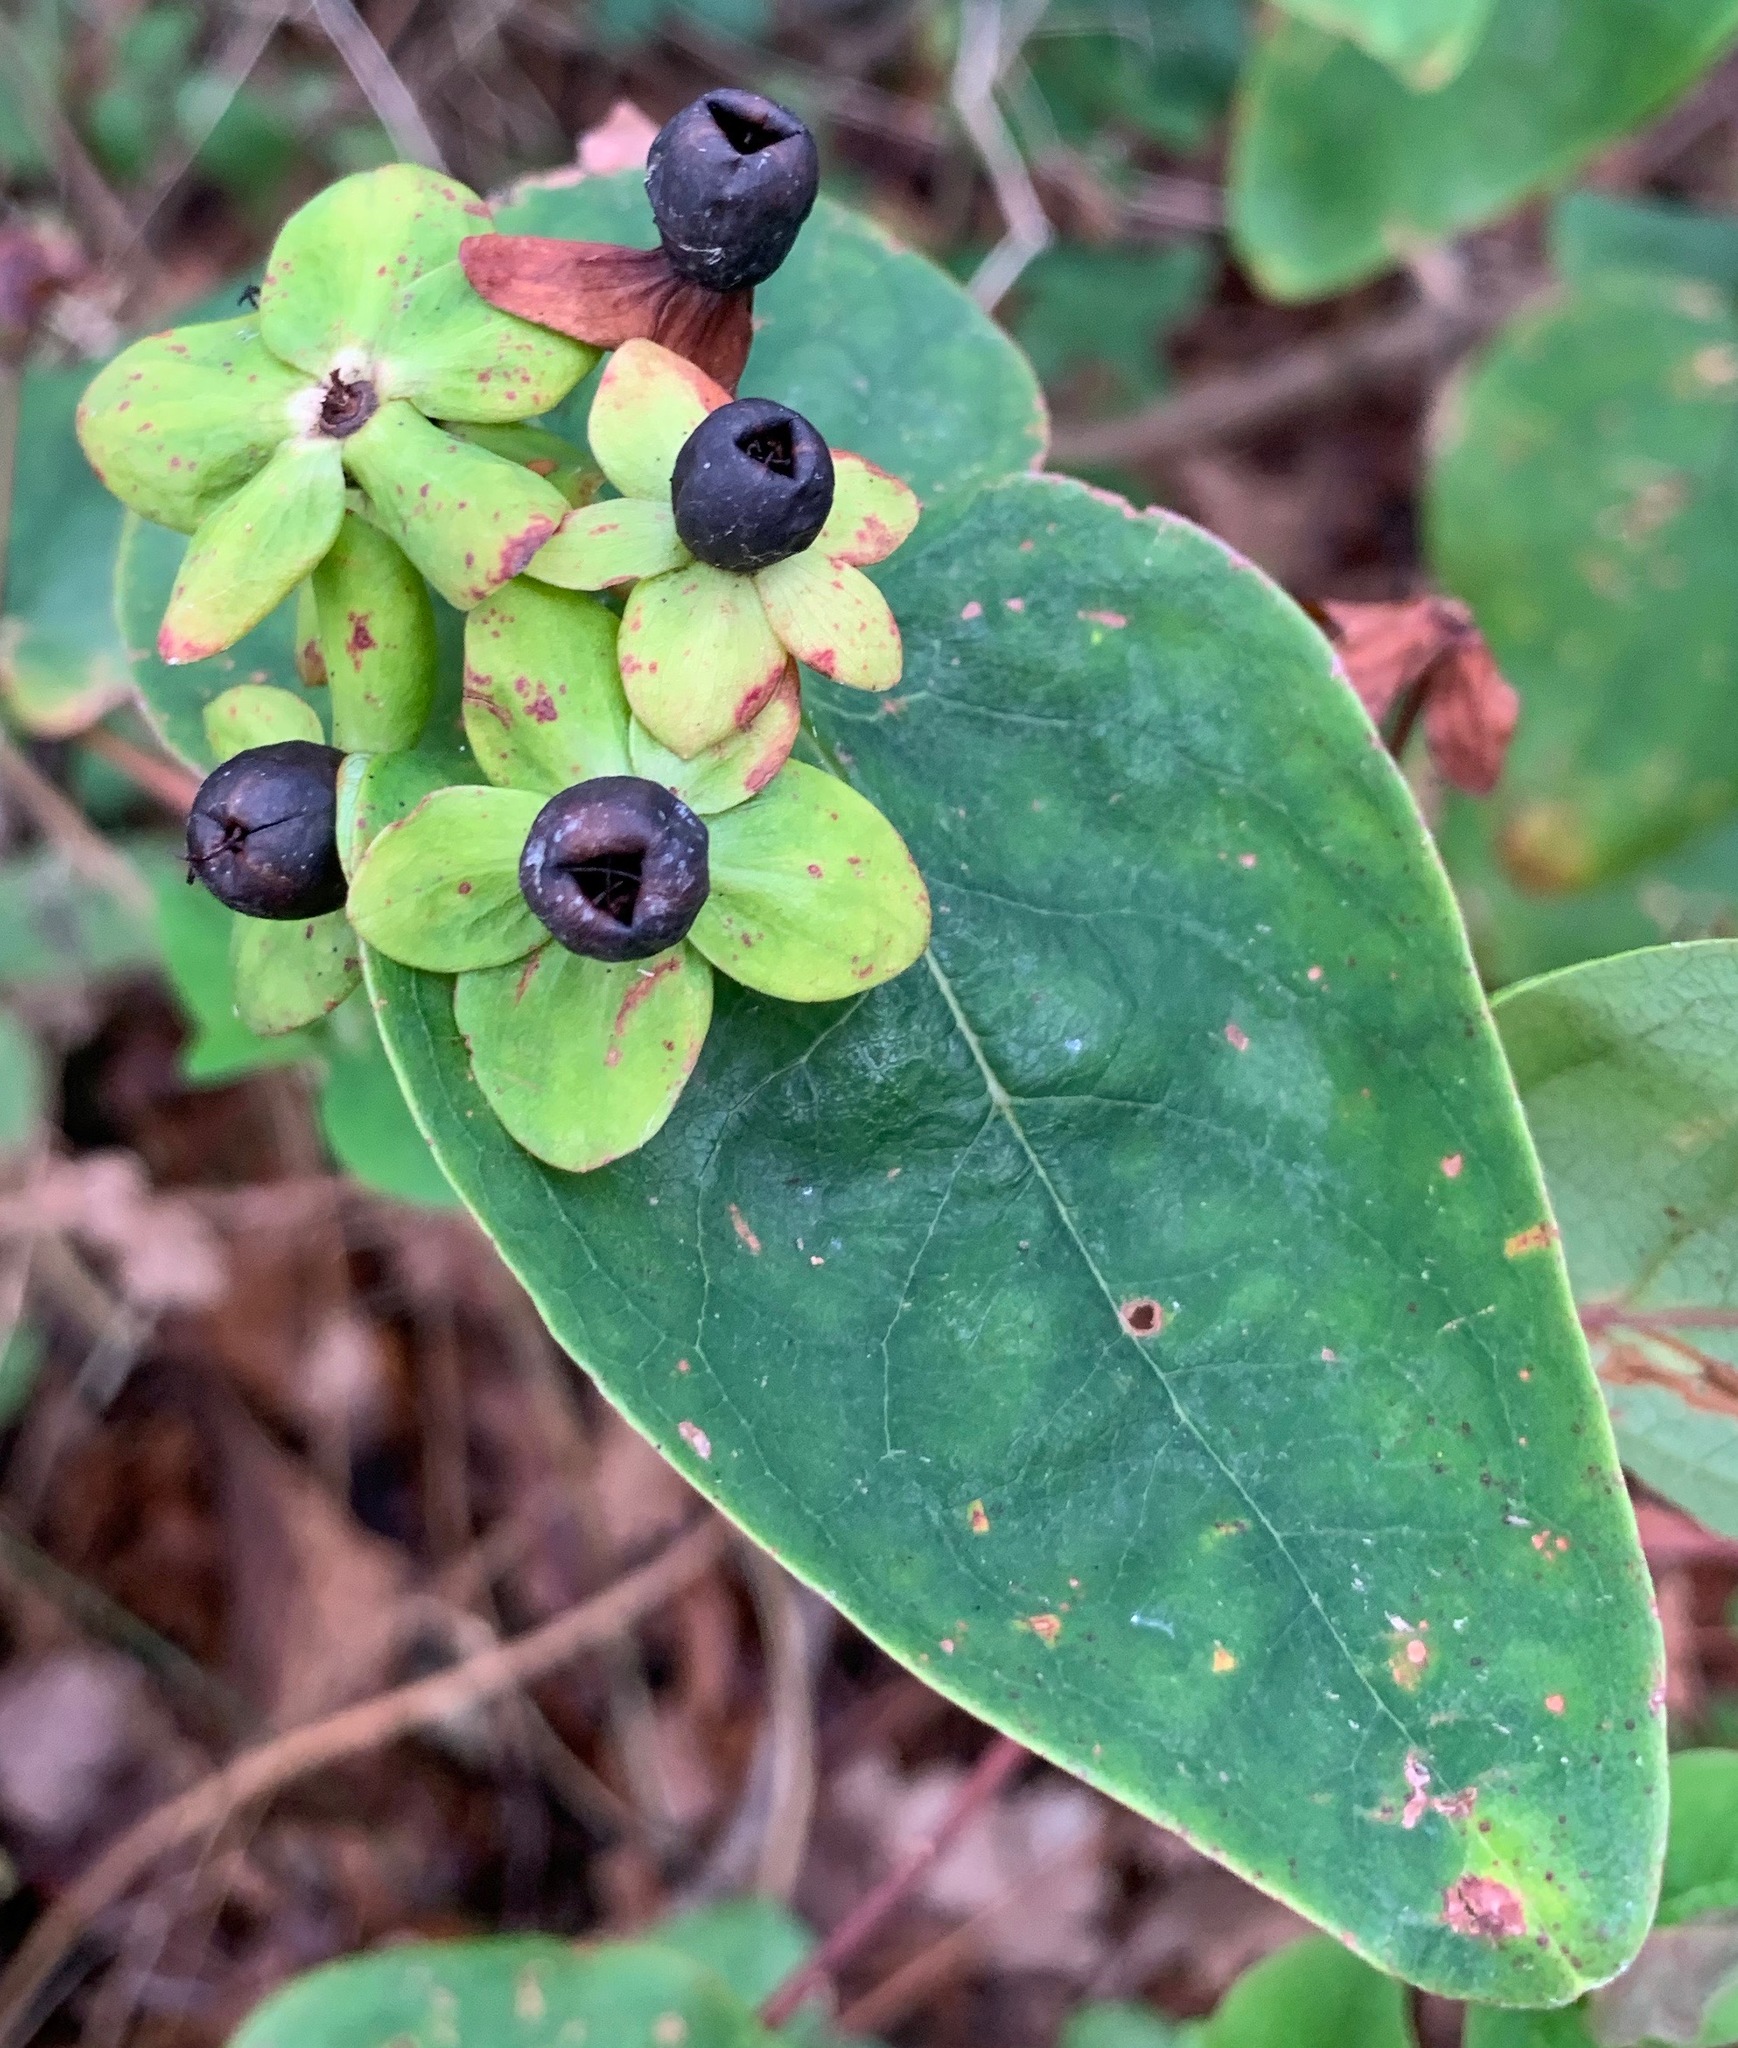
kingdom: Plantae
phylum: Tracheophyta
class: Magnoliopsida
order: Malpighiales
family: Hypericaceae
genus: Hypericum
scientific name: Hypericum androsaemum
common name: Sweet-amber
